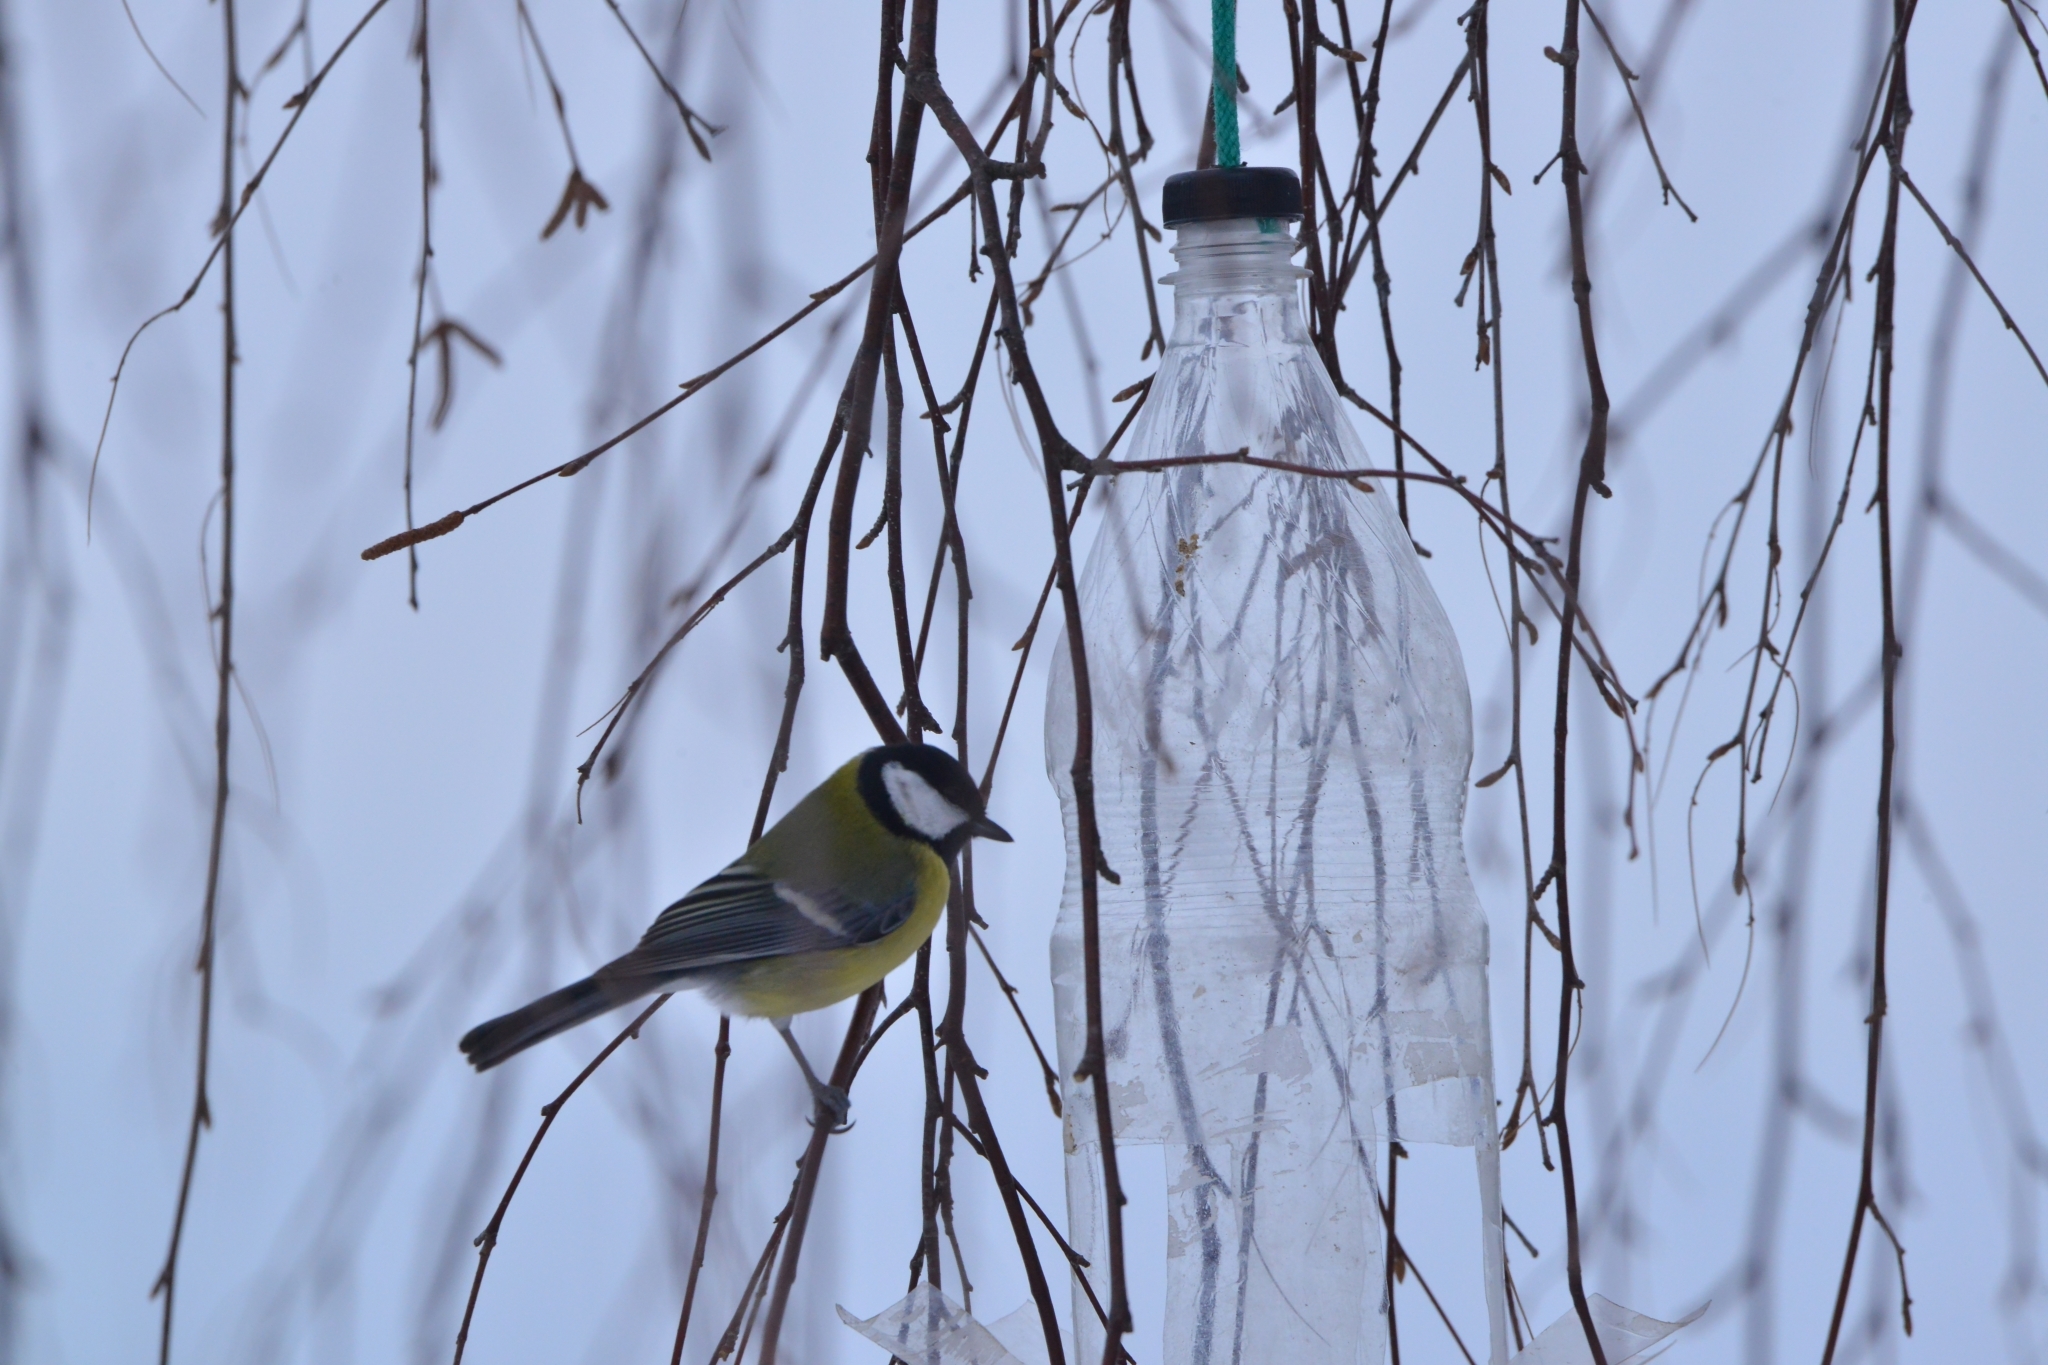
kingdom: Animalia
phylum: Chordata
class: Aves
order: Passeriformes
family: Paridae
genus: Parus
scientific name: Parus major
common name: Great tit
